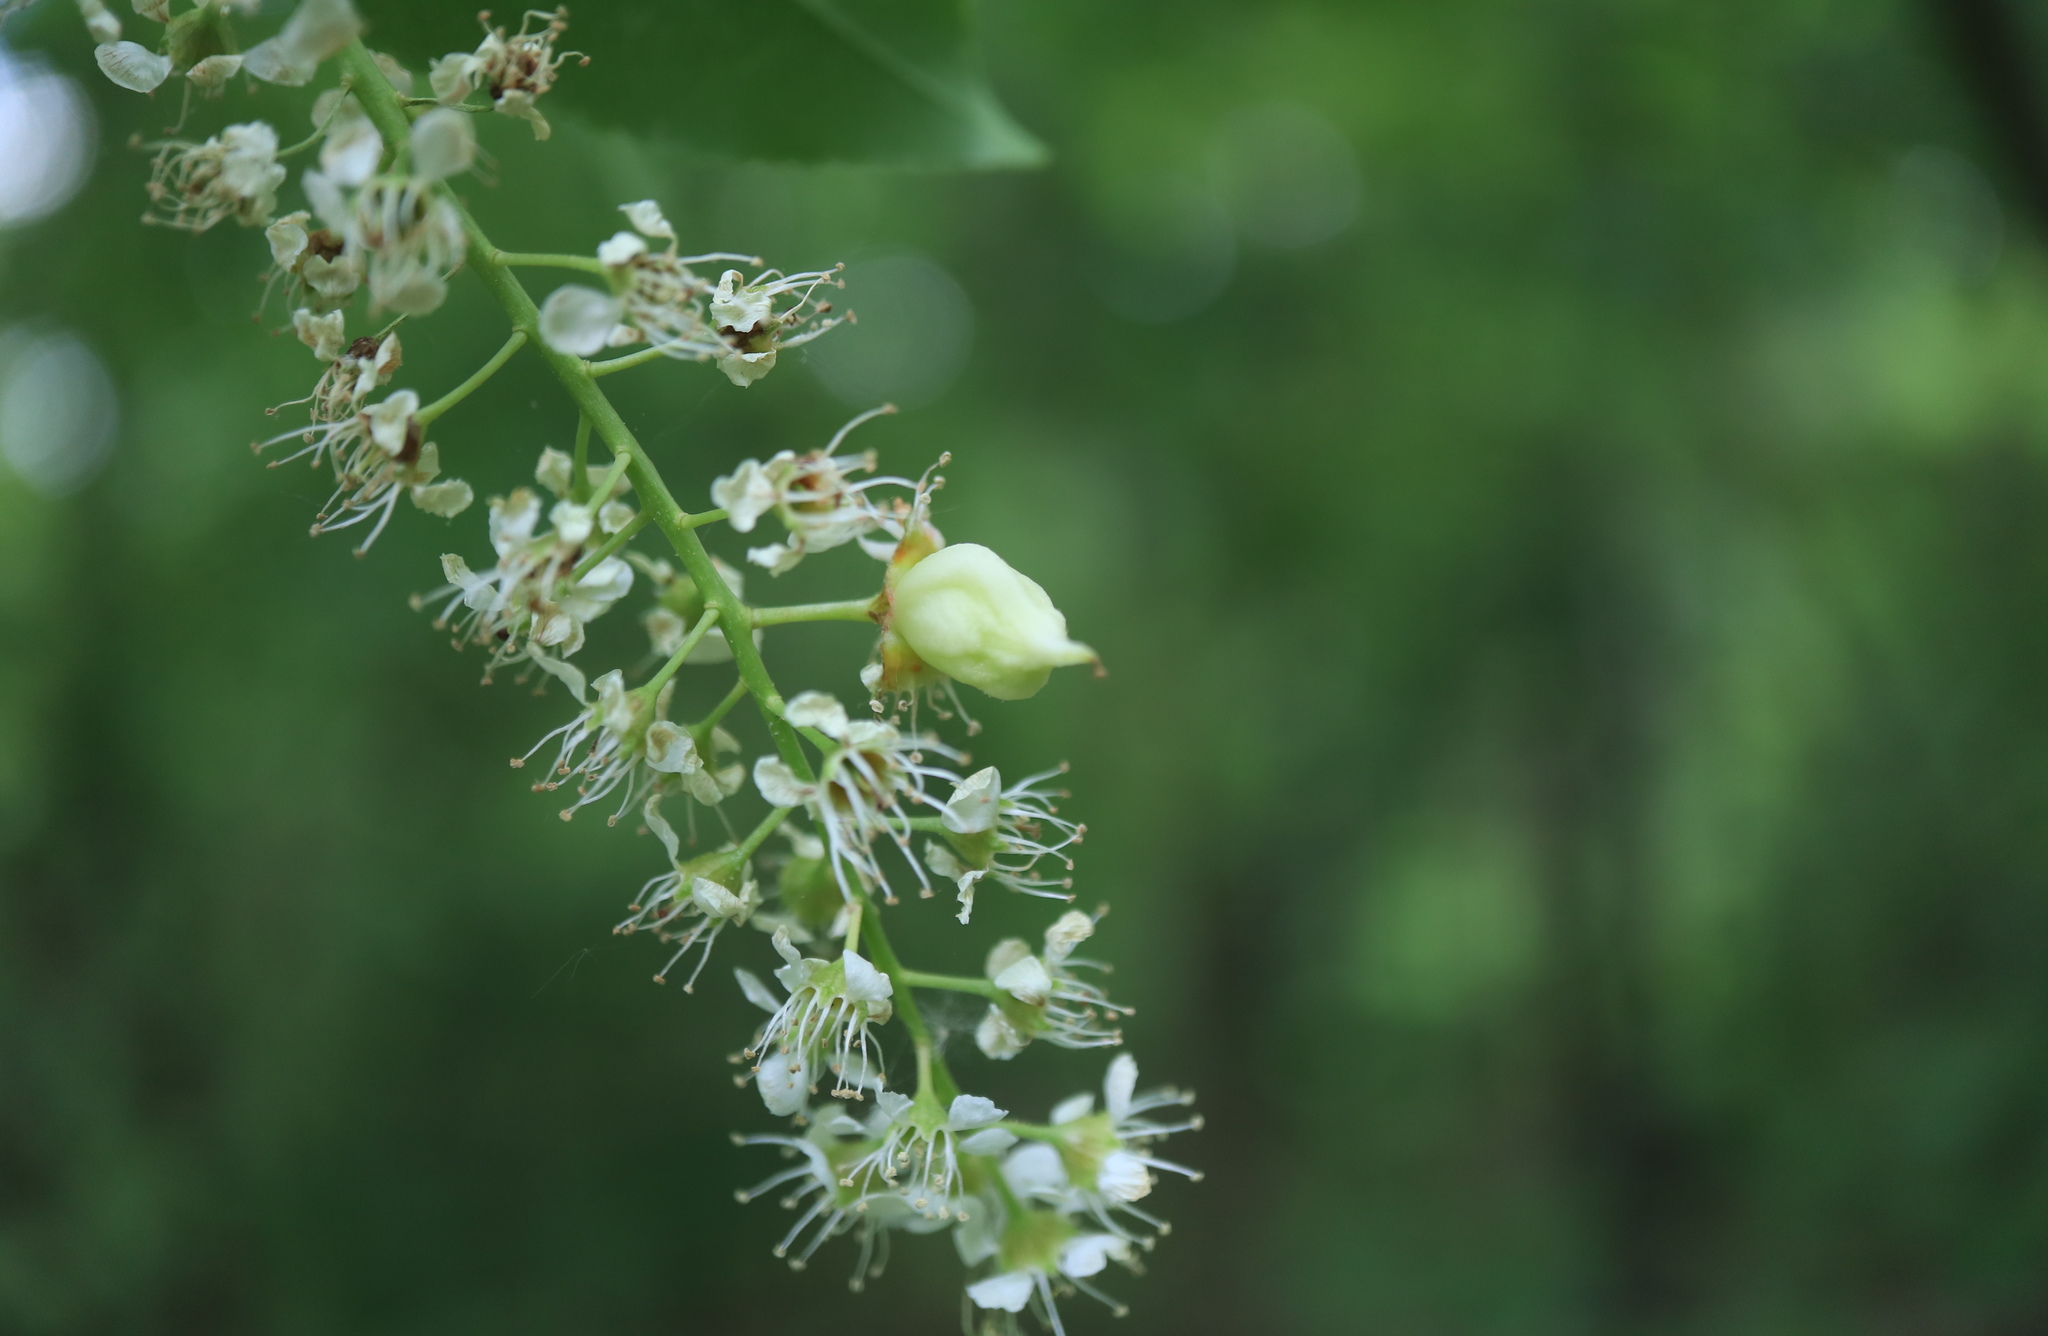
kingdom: Fungi
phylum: Ascomycota
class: Taphrinomycetes
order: Taphrinales
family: Taphrinaceae
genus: Taphrina
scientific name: Taphrina farlowii
